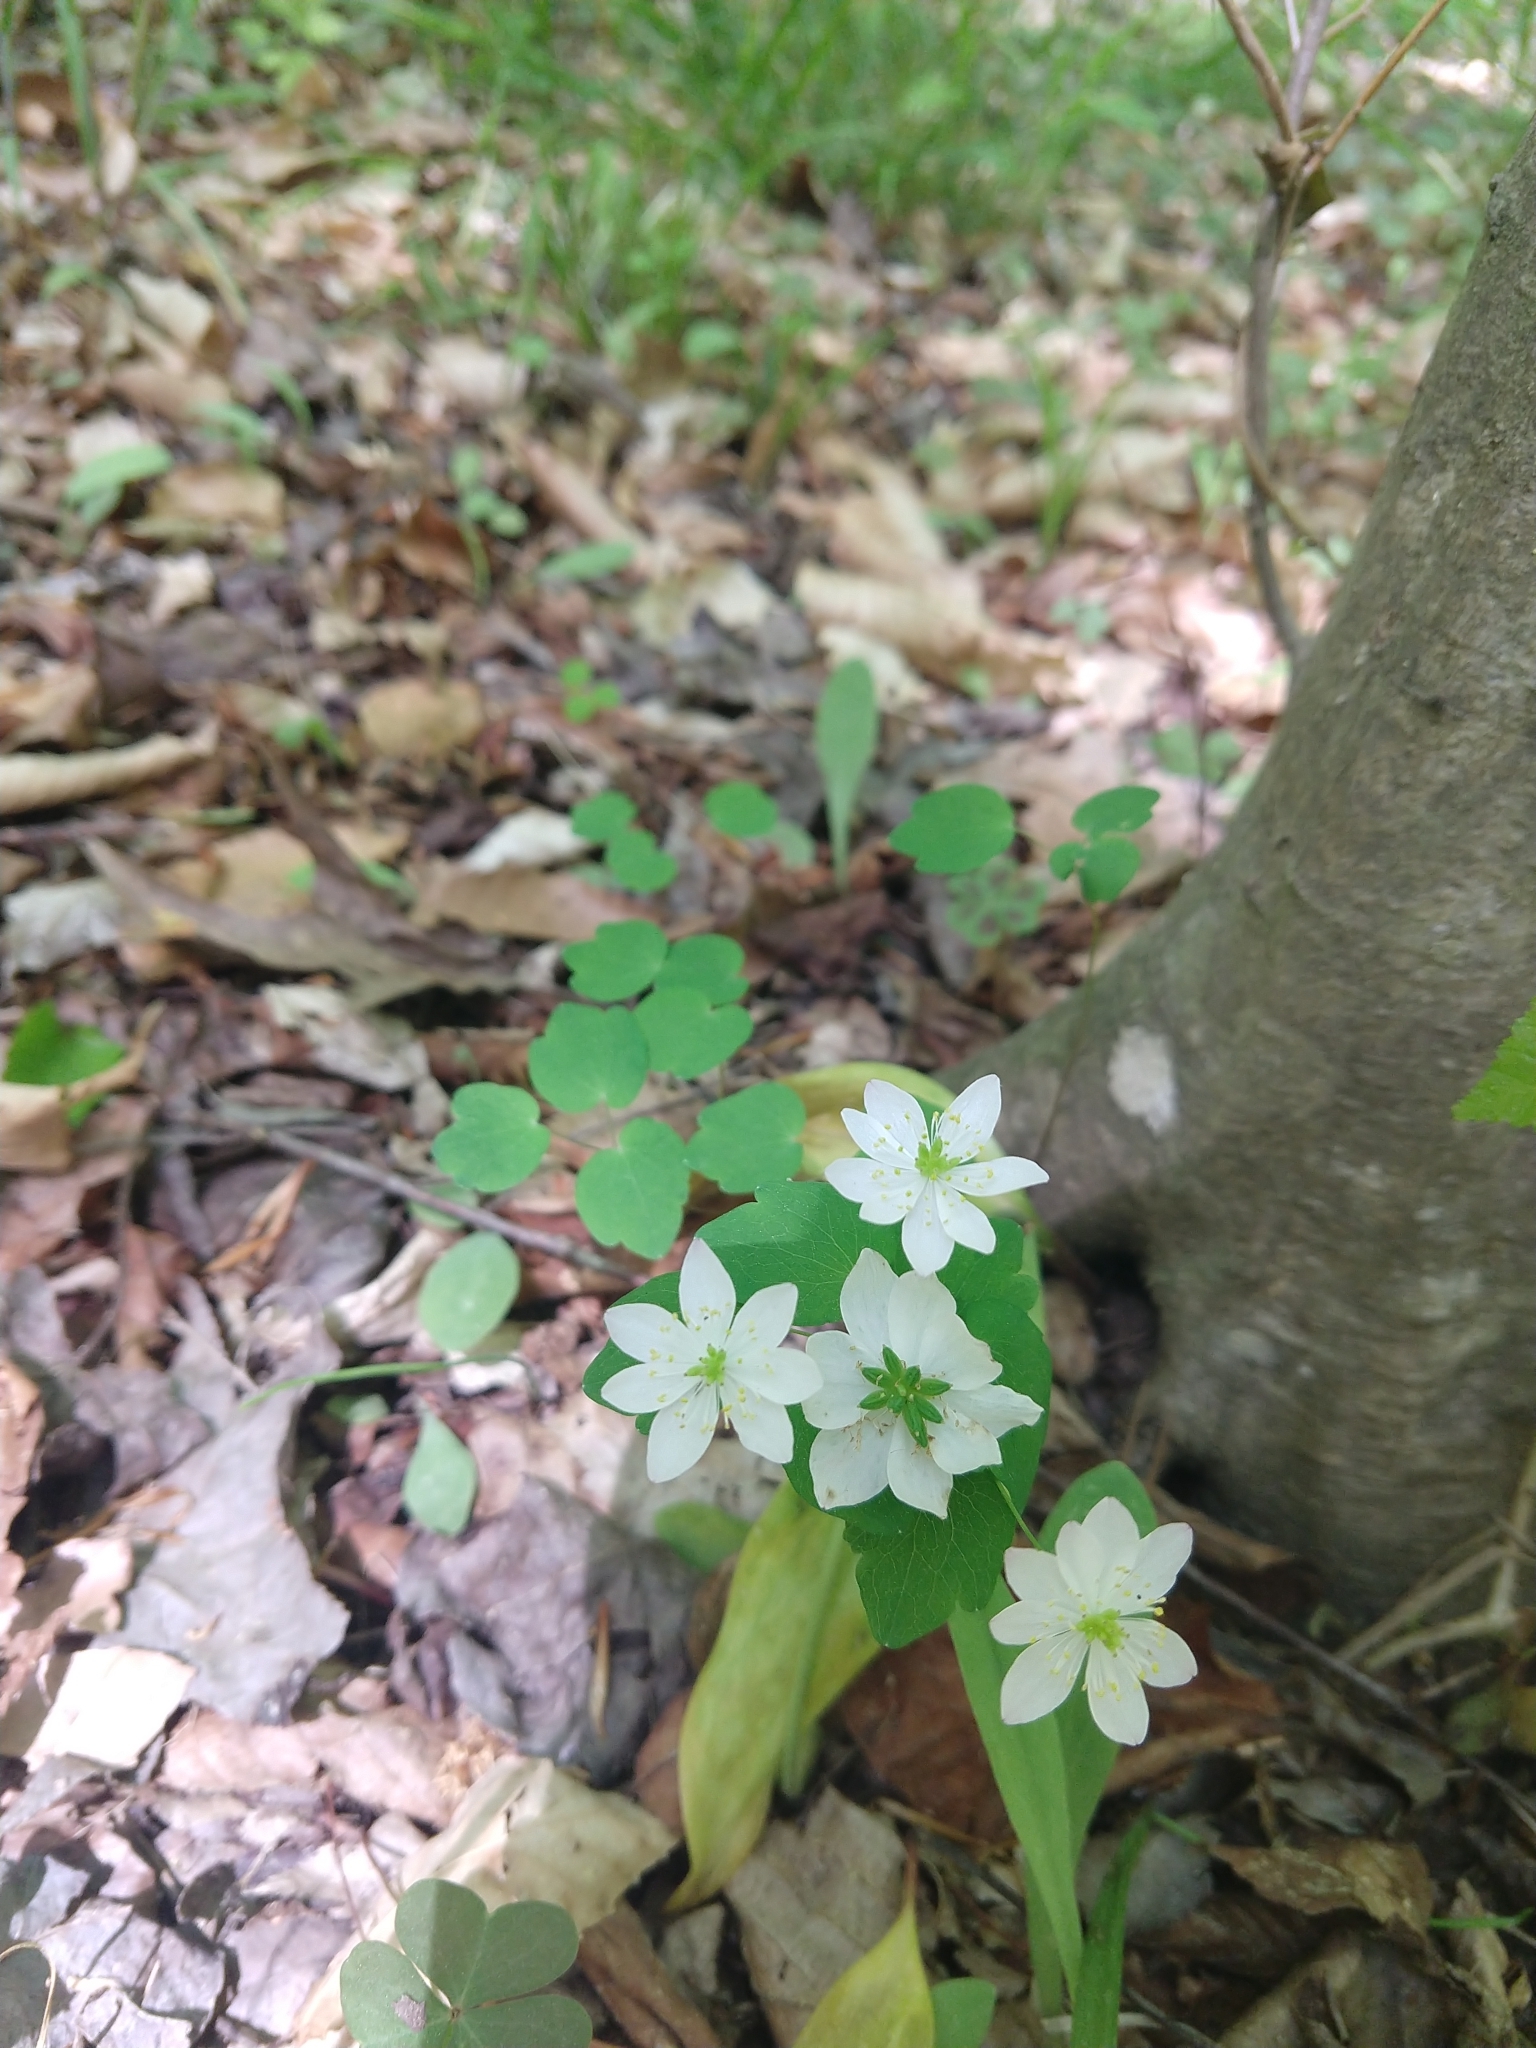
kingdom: Plantae
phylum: Tracheophyta
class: Magnoliopsida
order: Ranunculales
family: Ranunculaceae
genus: Thalictrum
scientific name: Thalictrum thalictroides
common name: Rue-anemone
